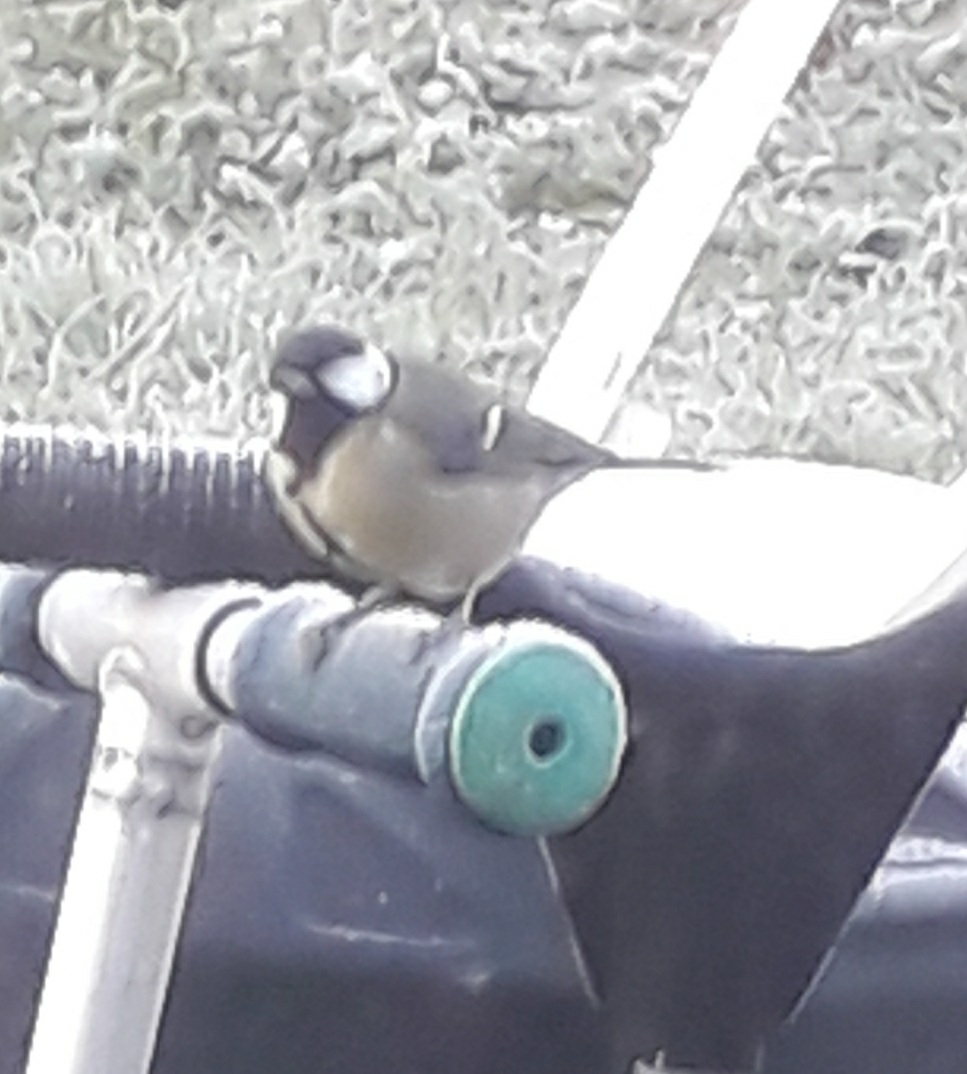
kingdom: Animalia
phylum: Chordata
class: Aves
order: Passeriformes
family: Paridae
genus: Parus
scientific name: Parus major
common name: Great tit
